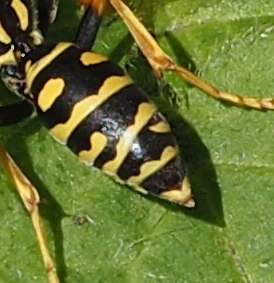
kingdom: Animalia
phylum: Arthropoda
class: Insecta
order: Strepsiptera
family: Xenidae
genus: Xenos
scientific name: Xenos vesparum
